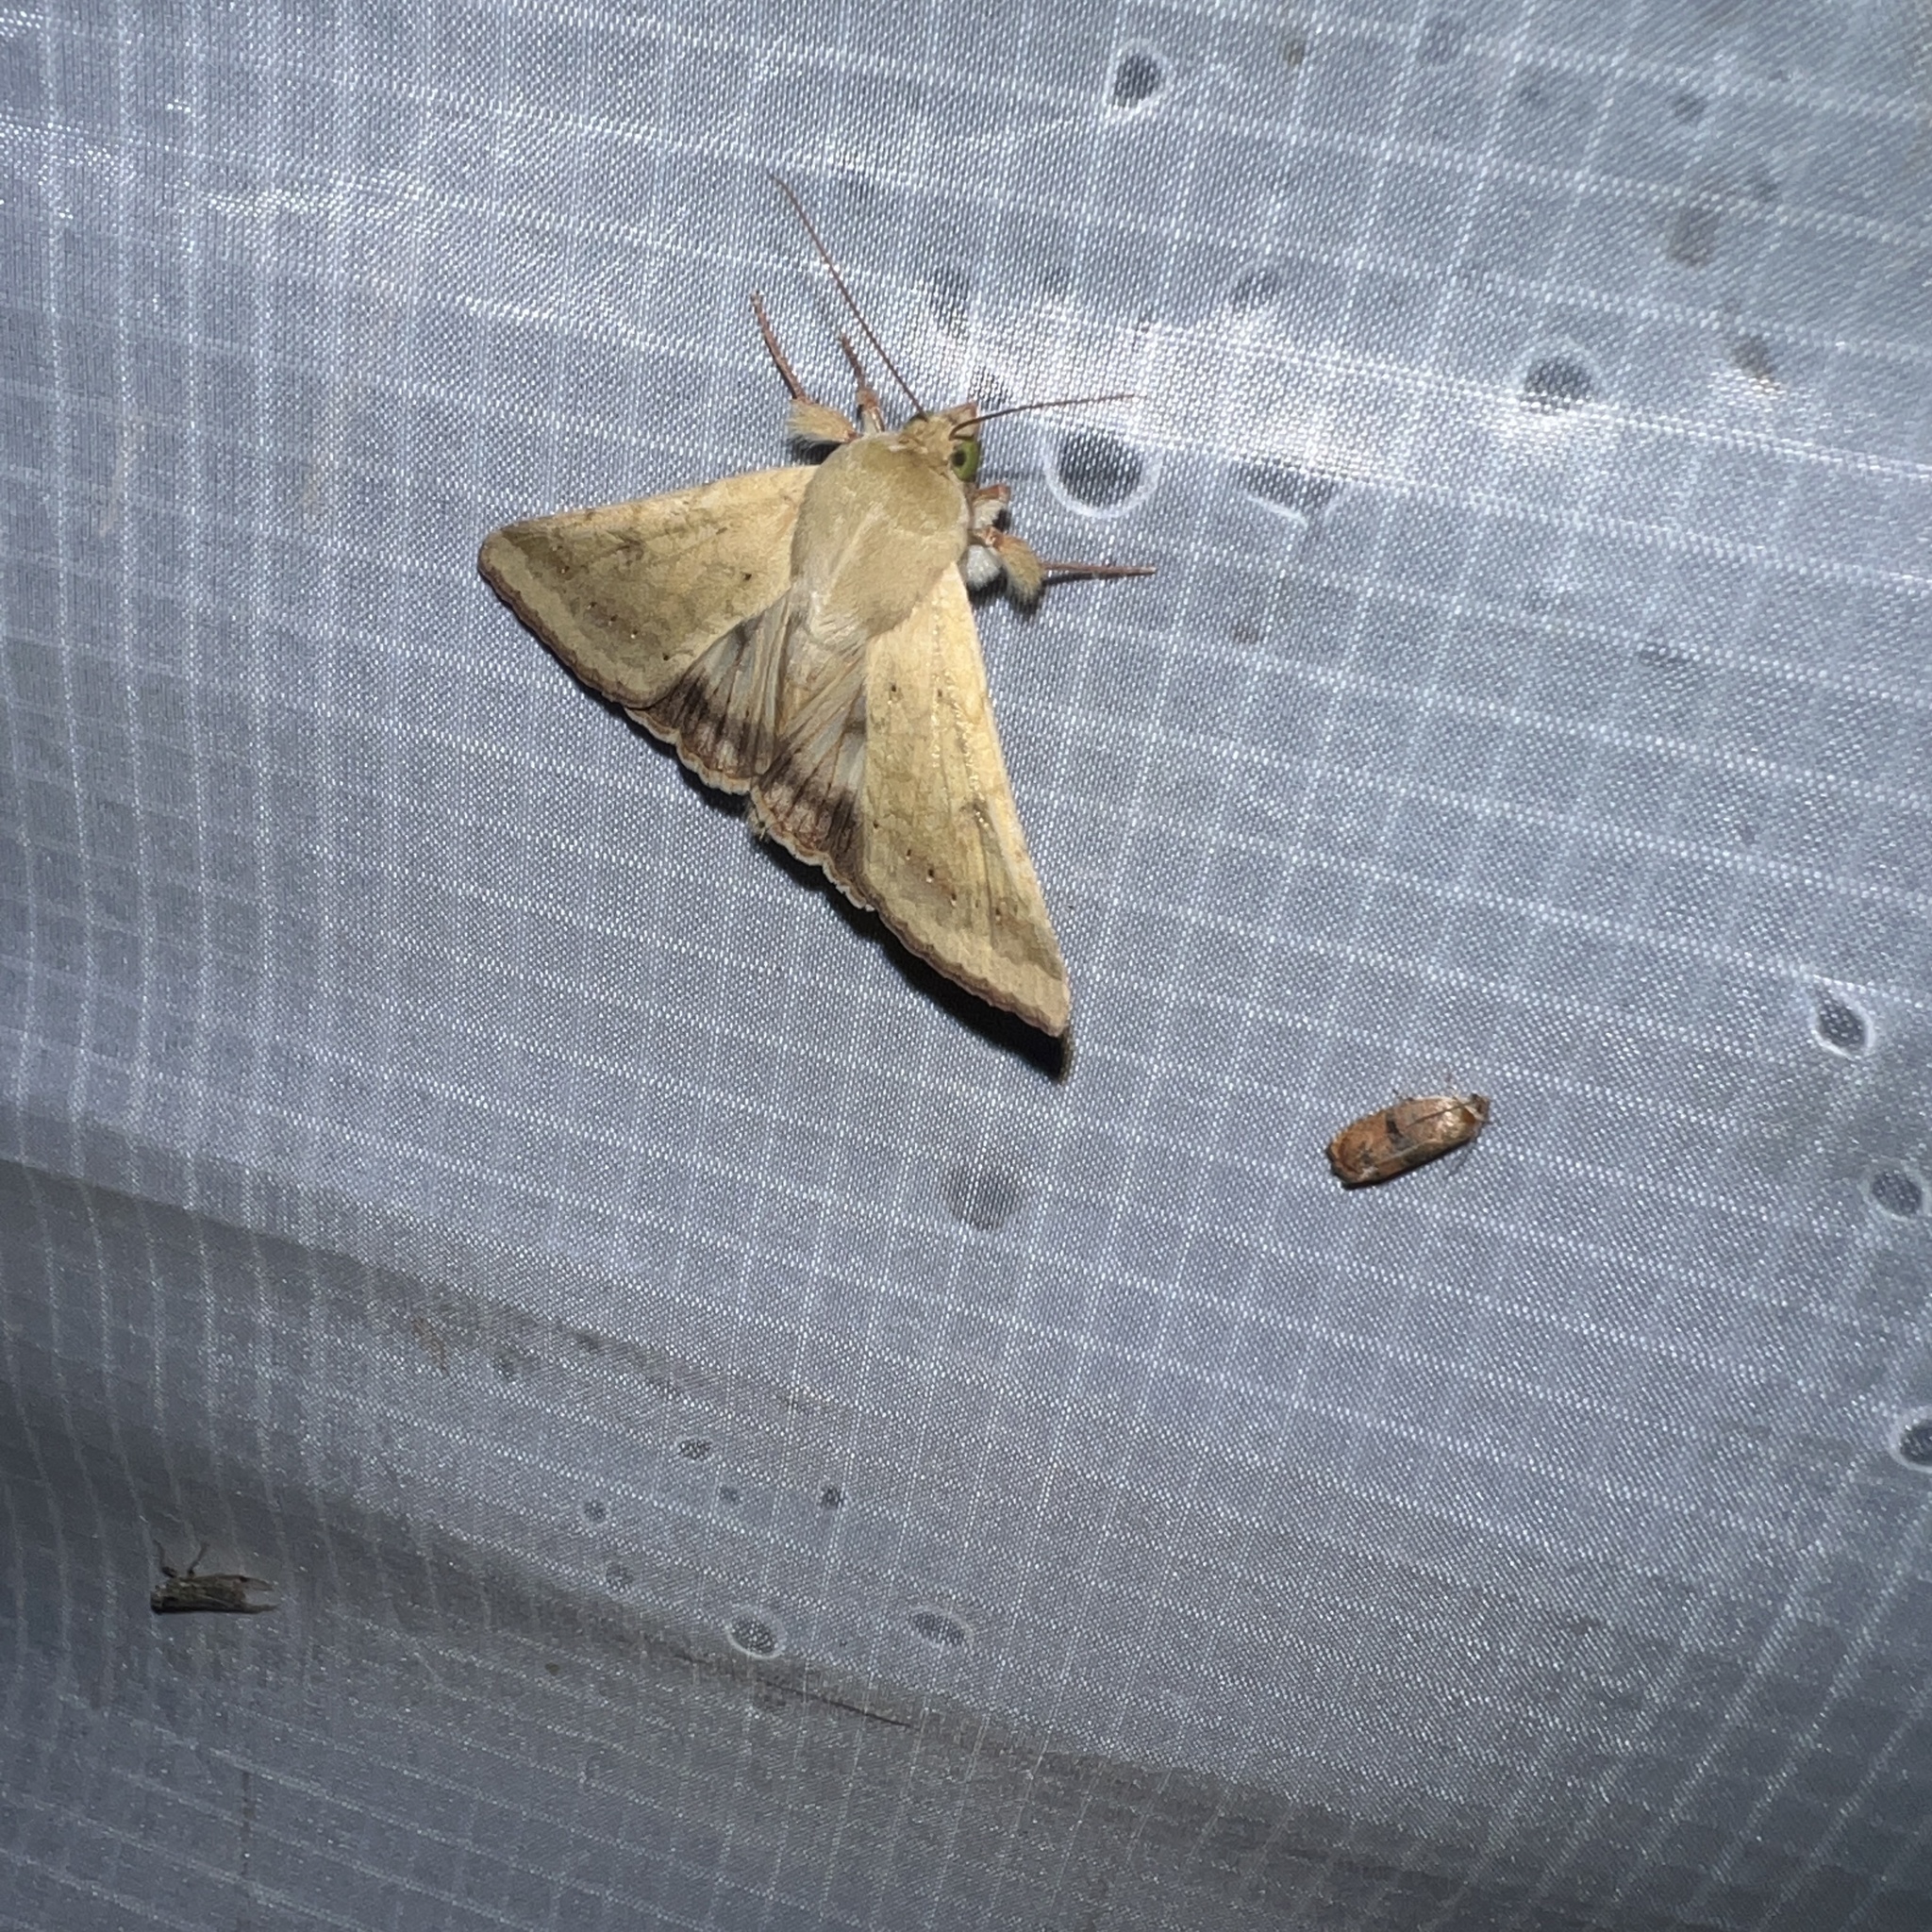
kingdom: Animalia
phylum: Arthropoda
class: Insecta
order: Lepidoptera
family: Noctuidae
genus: Helicoverpa
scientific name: Helicoverpa zea
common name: Bollworm
